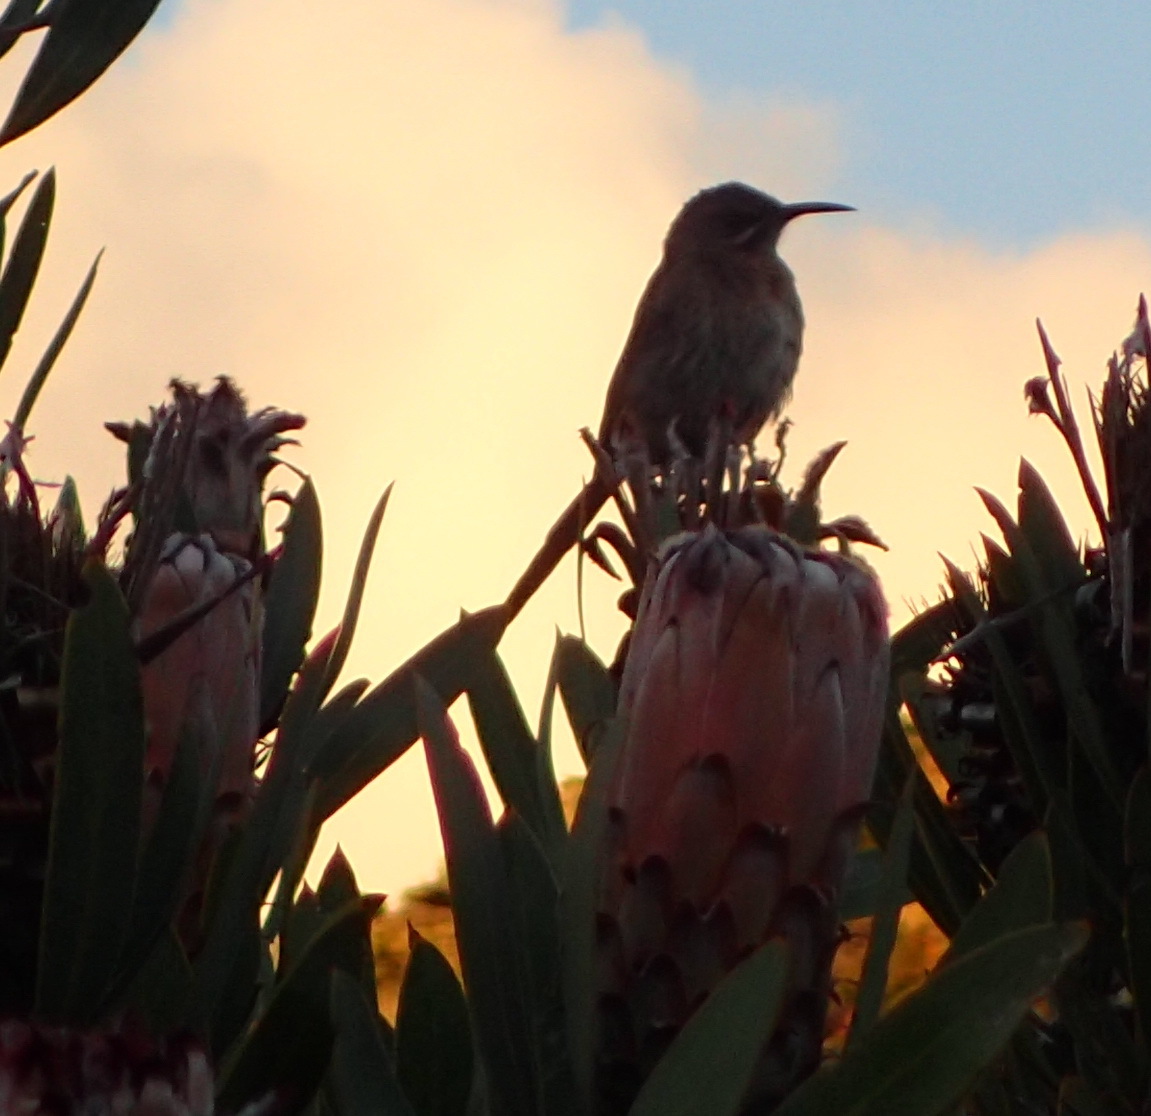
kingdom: Animalia
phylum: Chordata
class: Aves
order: Passeriformes
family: Promeropidae
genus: Promerops
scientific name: Promerops cafer
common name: Cape sugarbird
